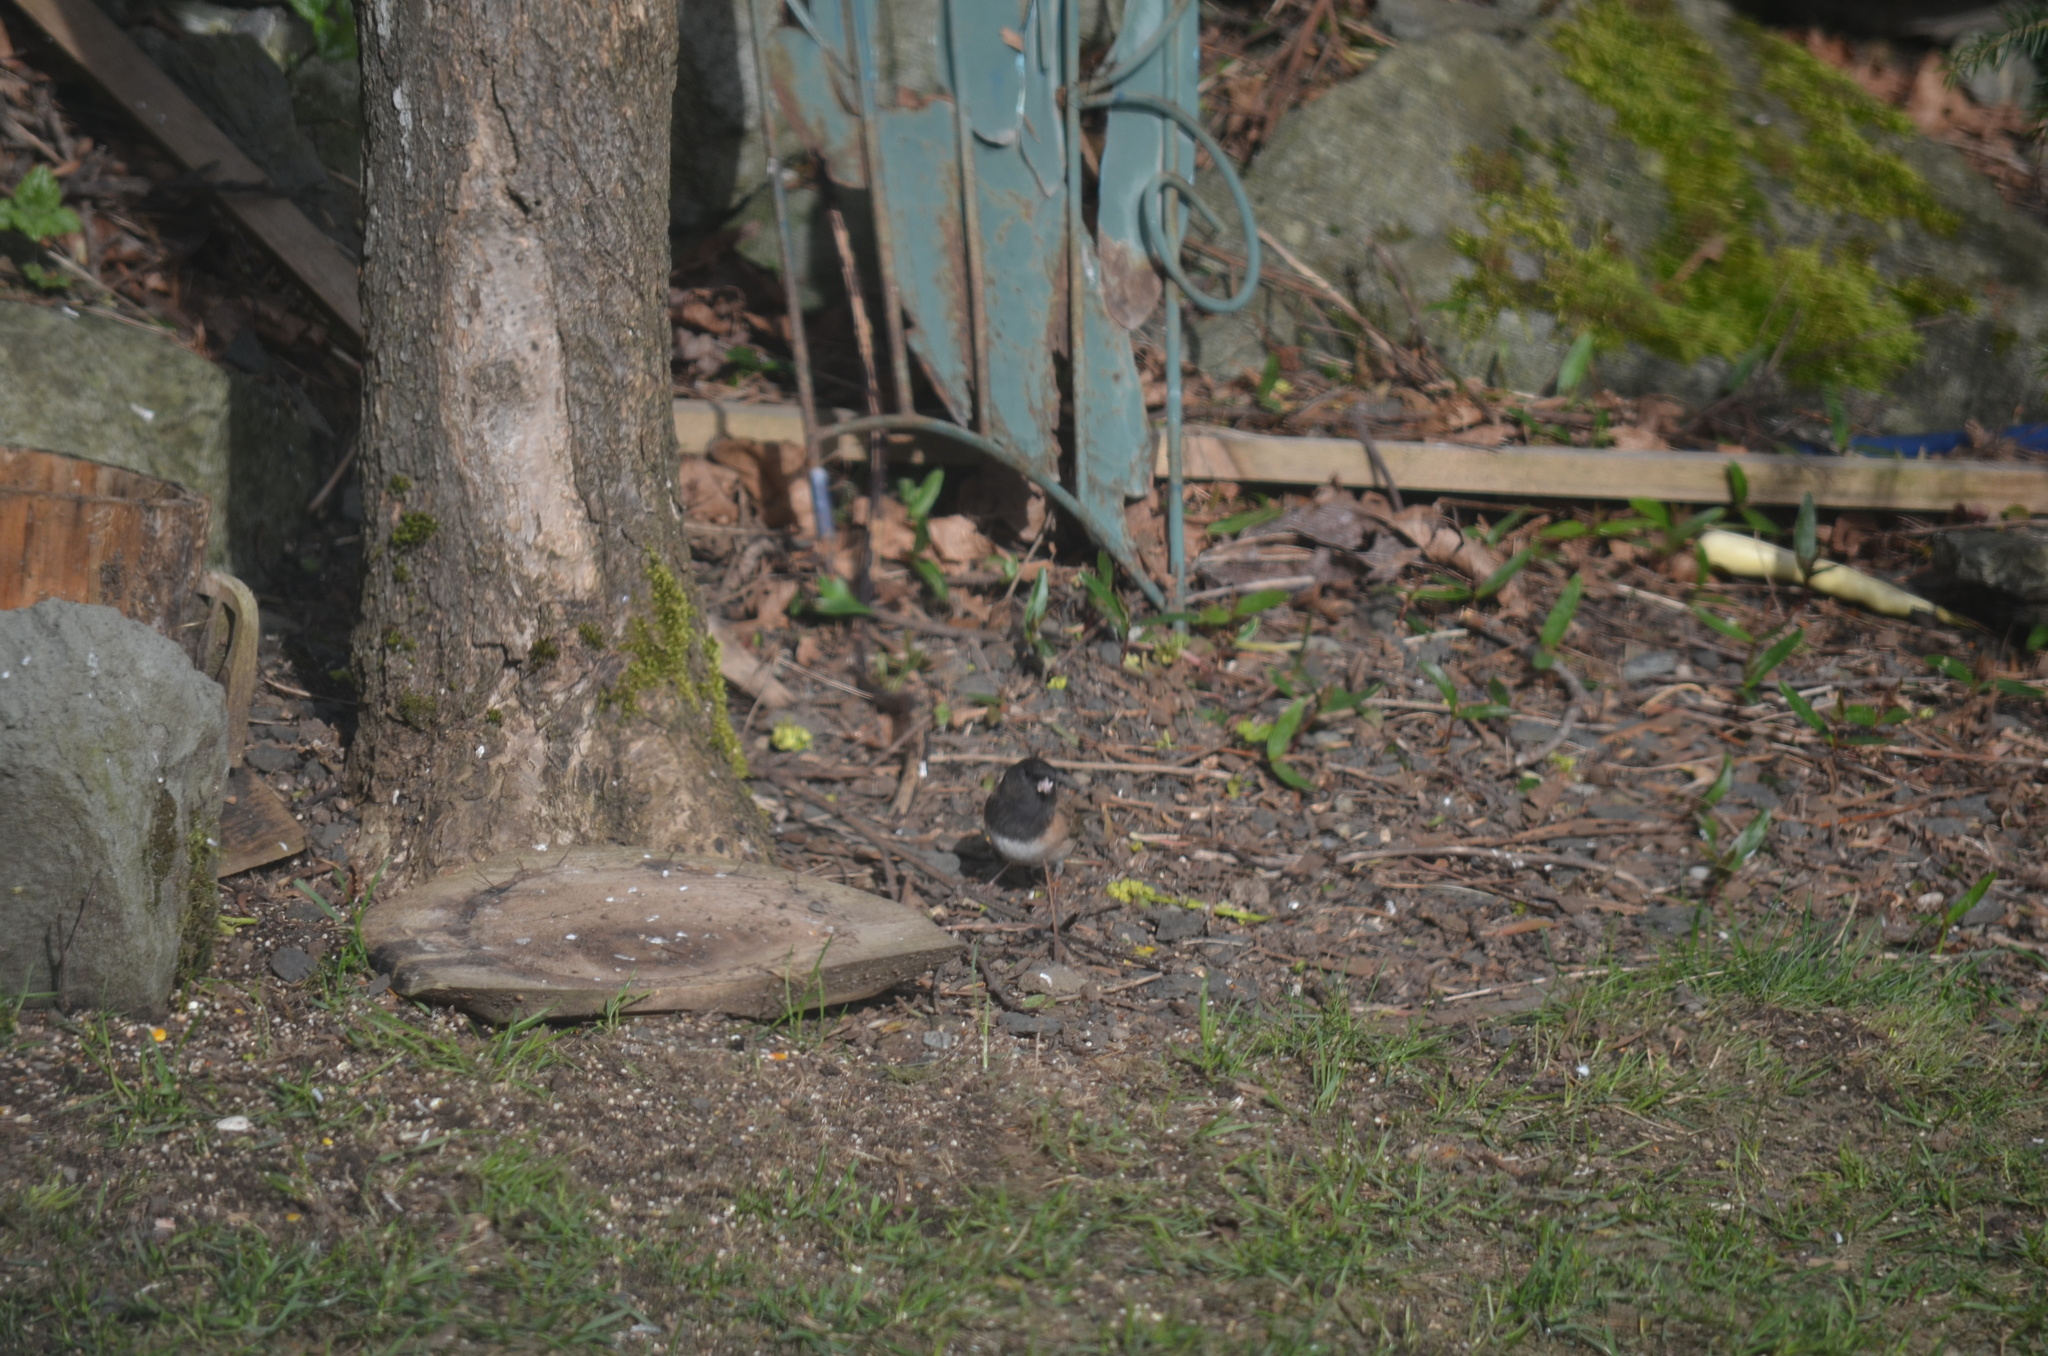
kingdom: Animalia
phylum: Chordata
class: Aves
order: Passeriformes
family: Passerellidae
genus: Junco
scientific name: Junco hyemalis
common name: Dark-eyed junco
